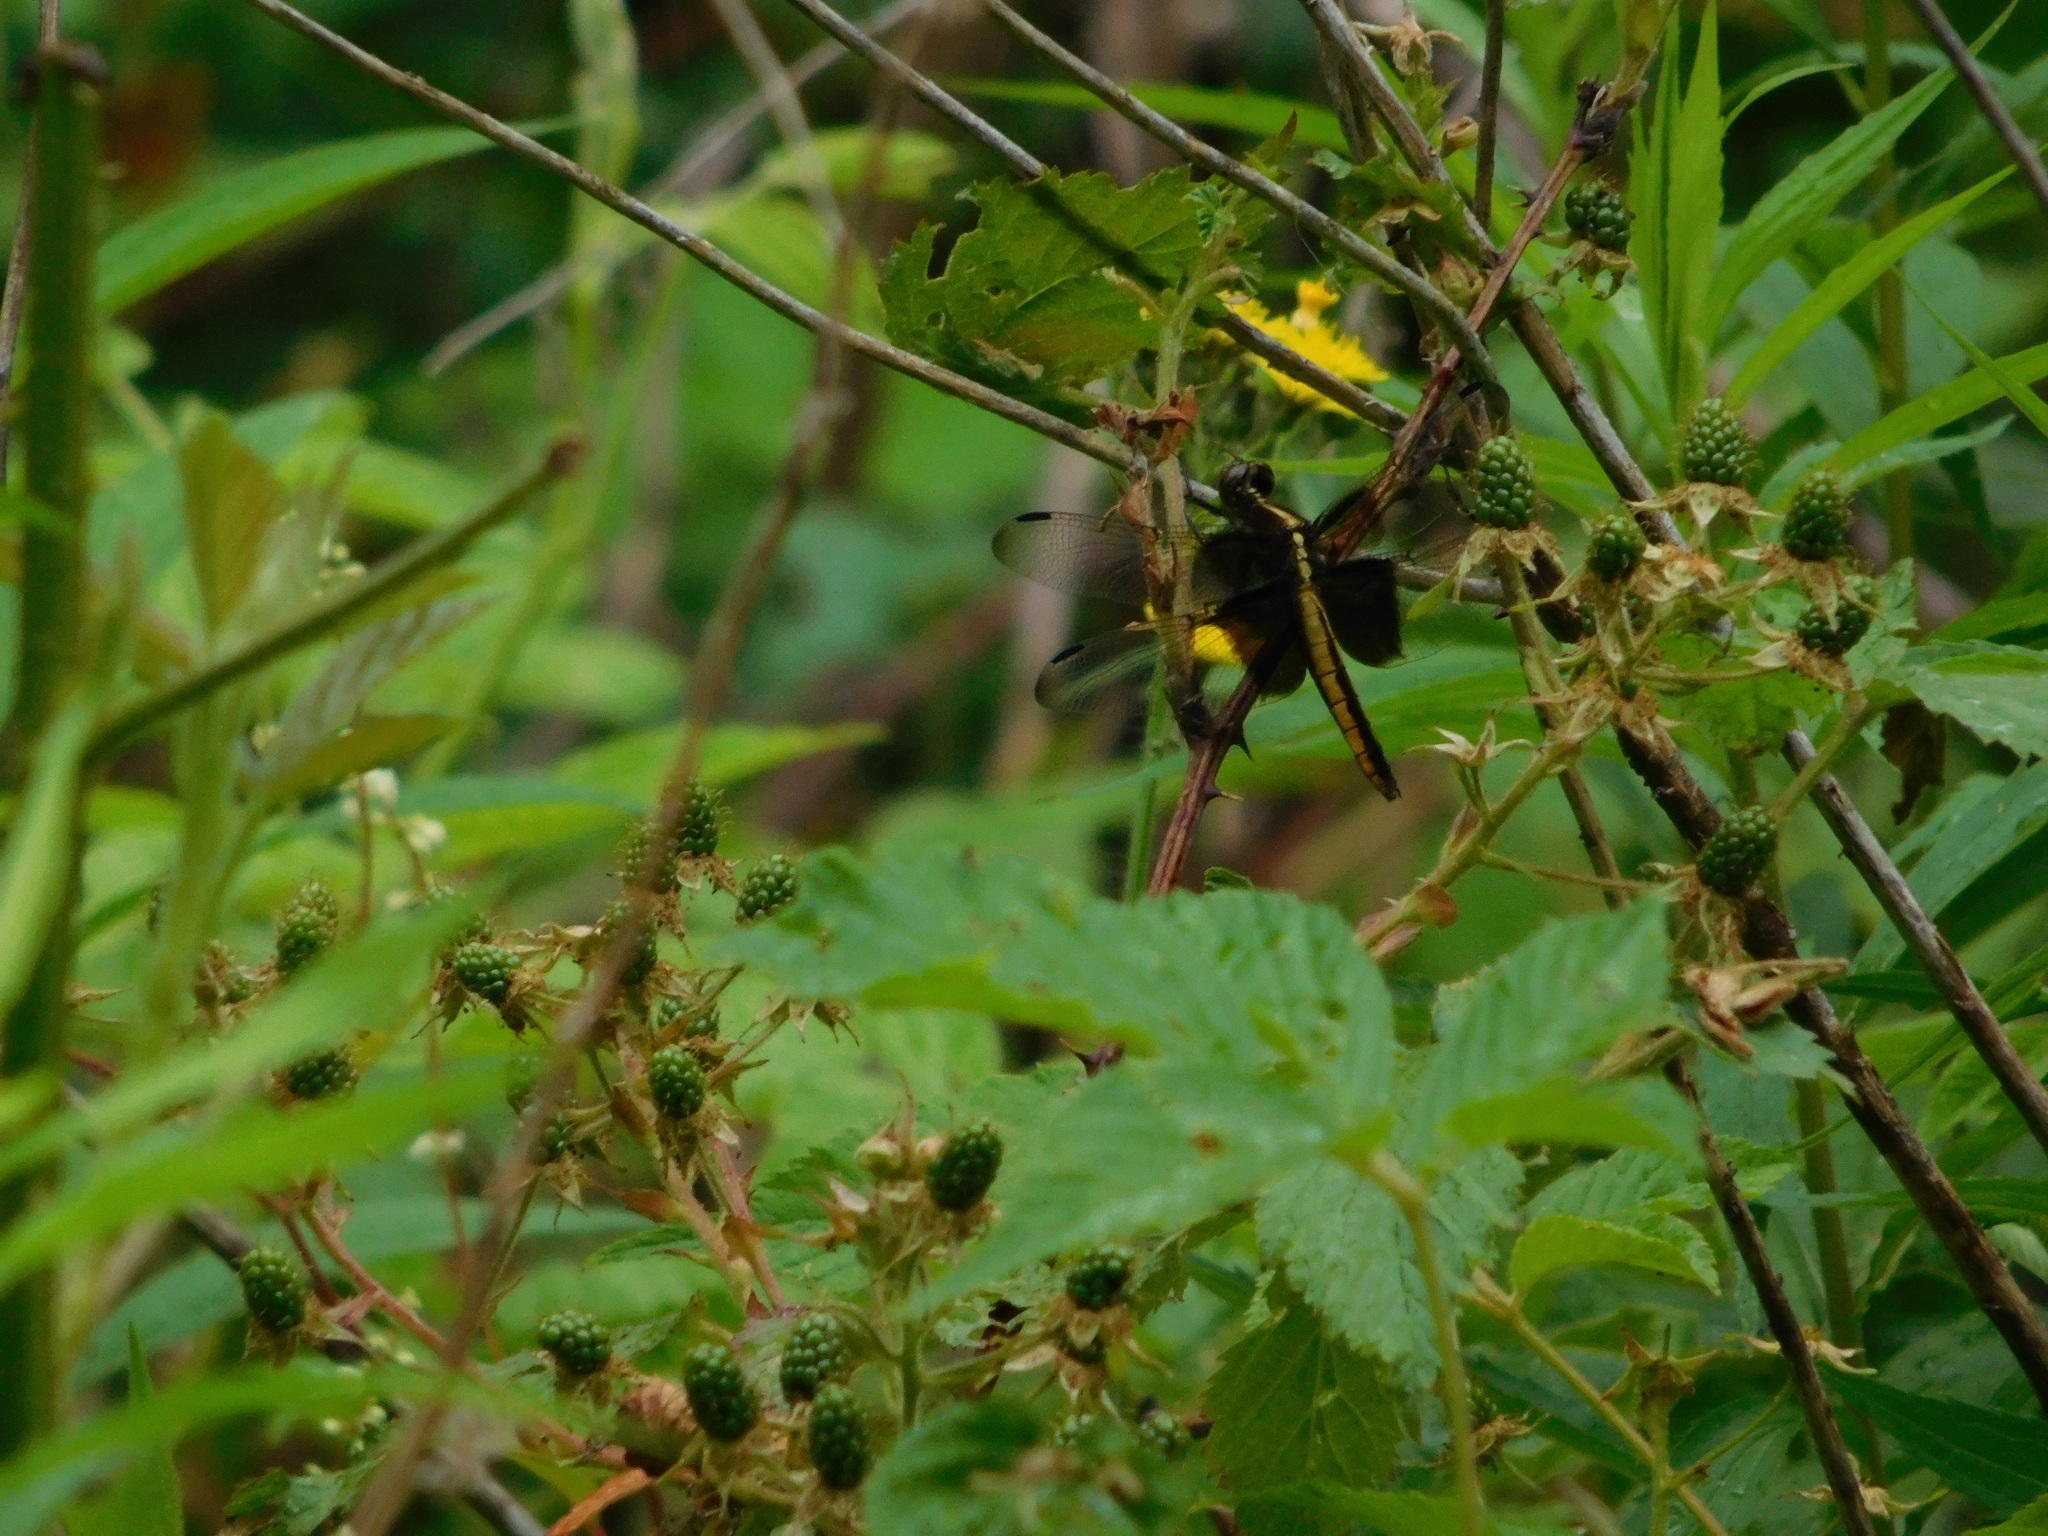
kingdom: Animalia
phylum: Arthropoda
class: Insecta
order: Odonata
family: Libellulidae
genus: Libellula
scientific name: Libellula luctuosa
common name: Widow skimmer
